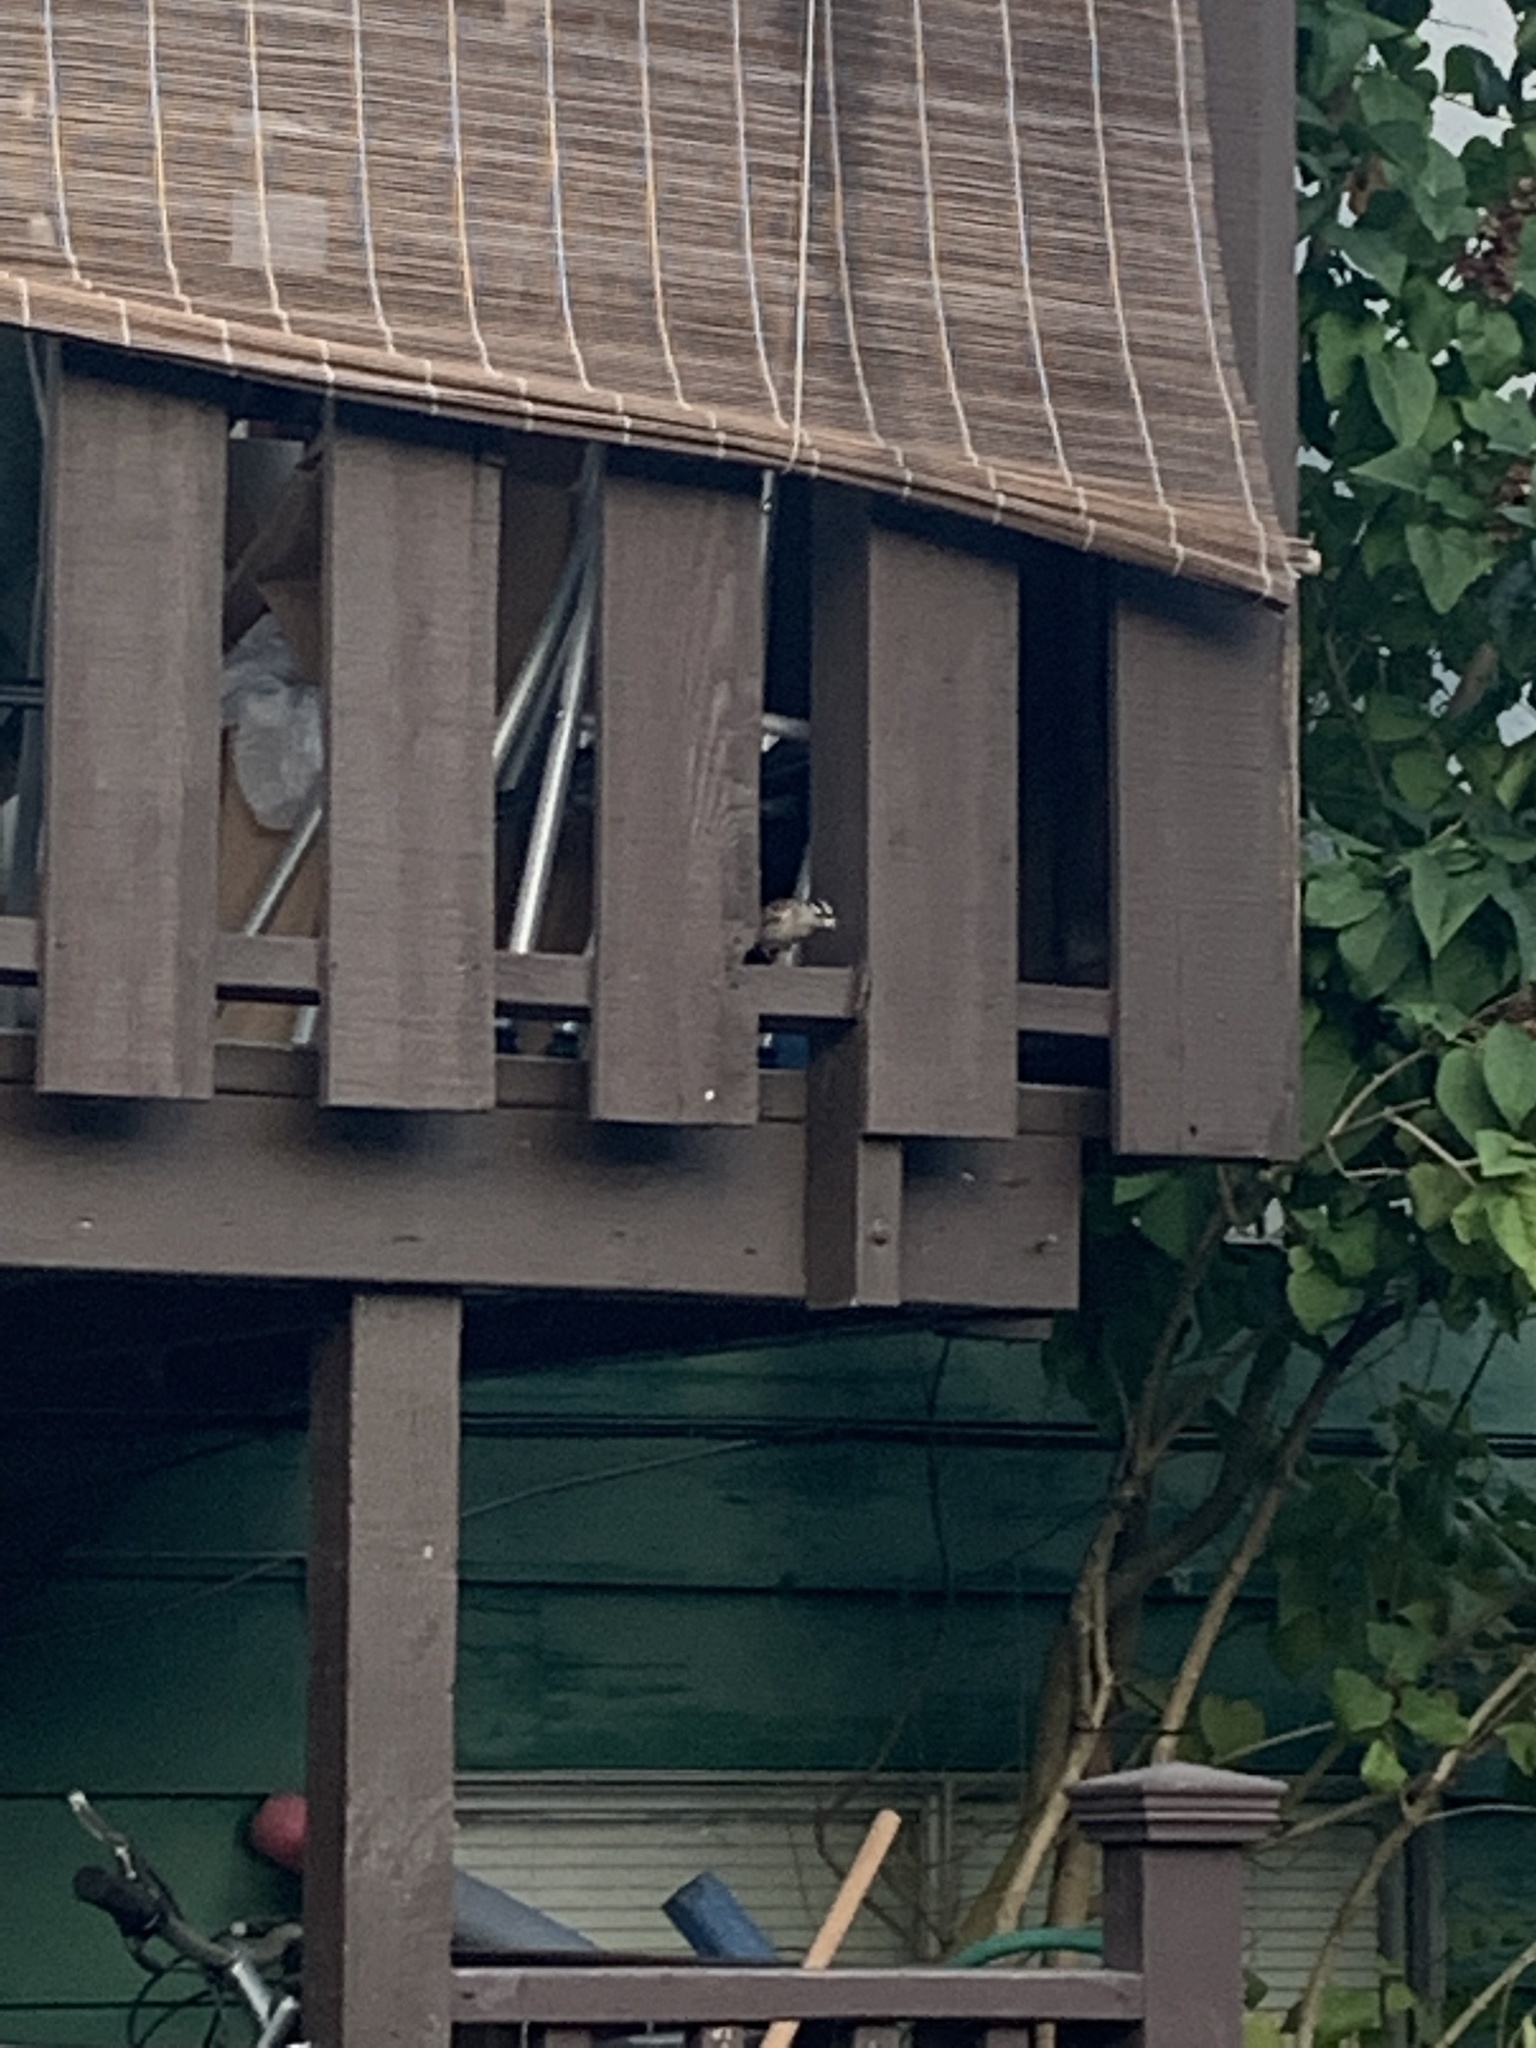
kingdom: Animalia
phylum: Chordata
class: Aves
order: Passeriformes
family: Passerellidae
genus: Zonotrichia
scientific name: Zonotrichia leucophrys
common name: White-crowned sparrow
